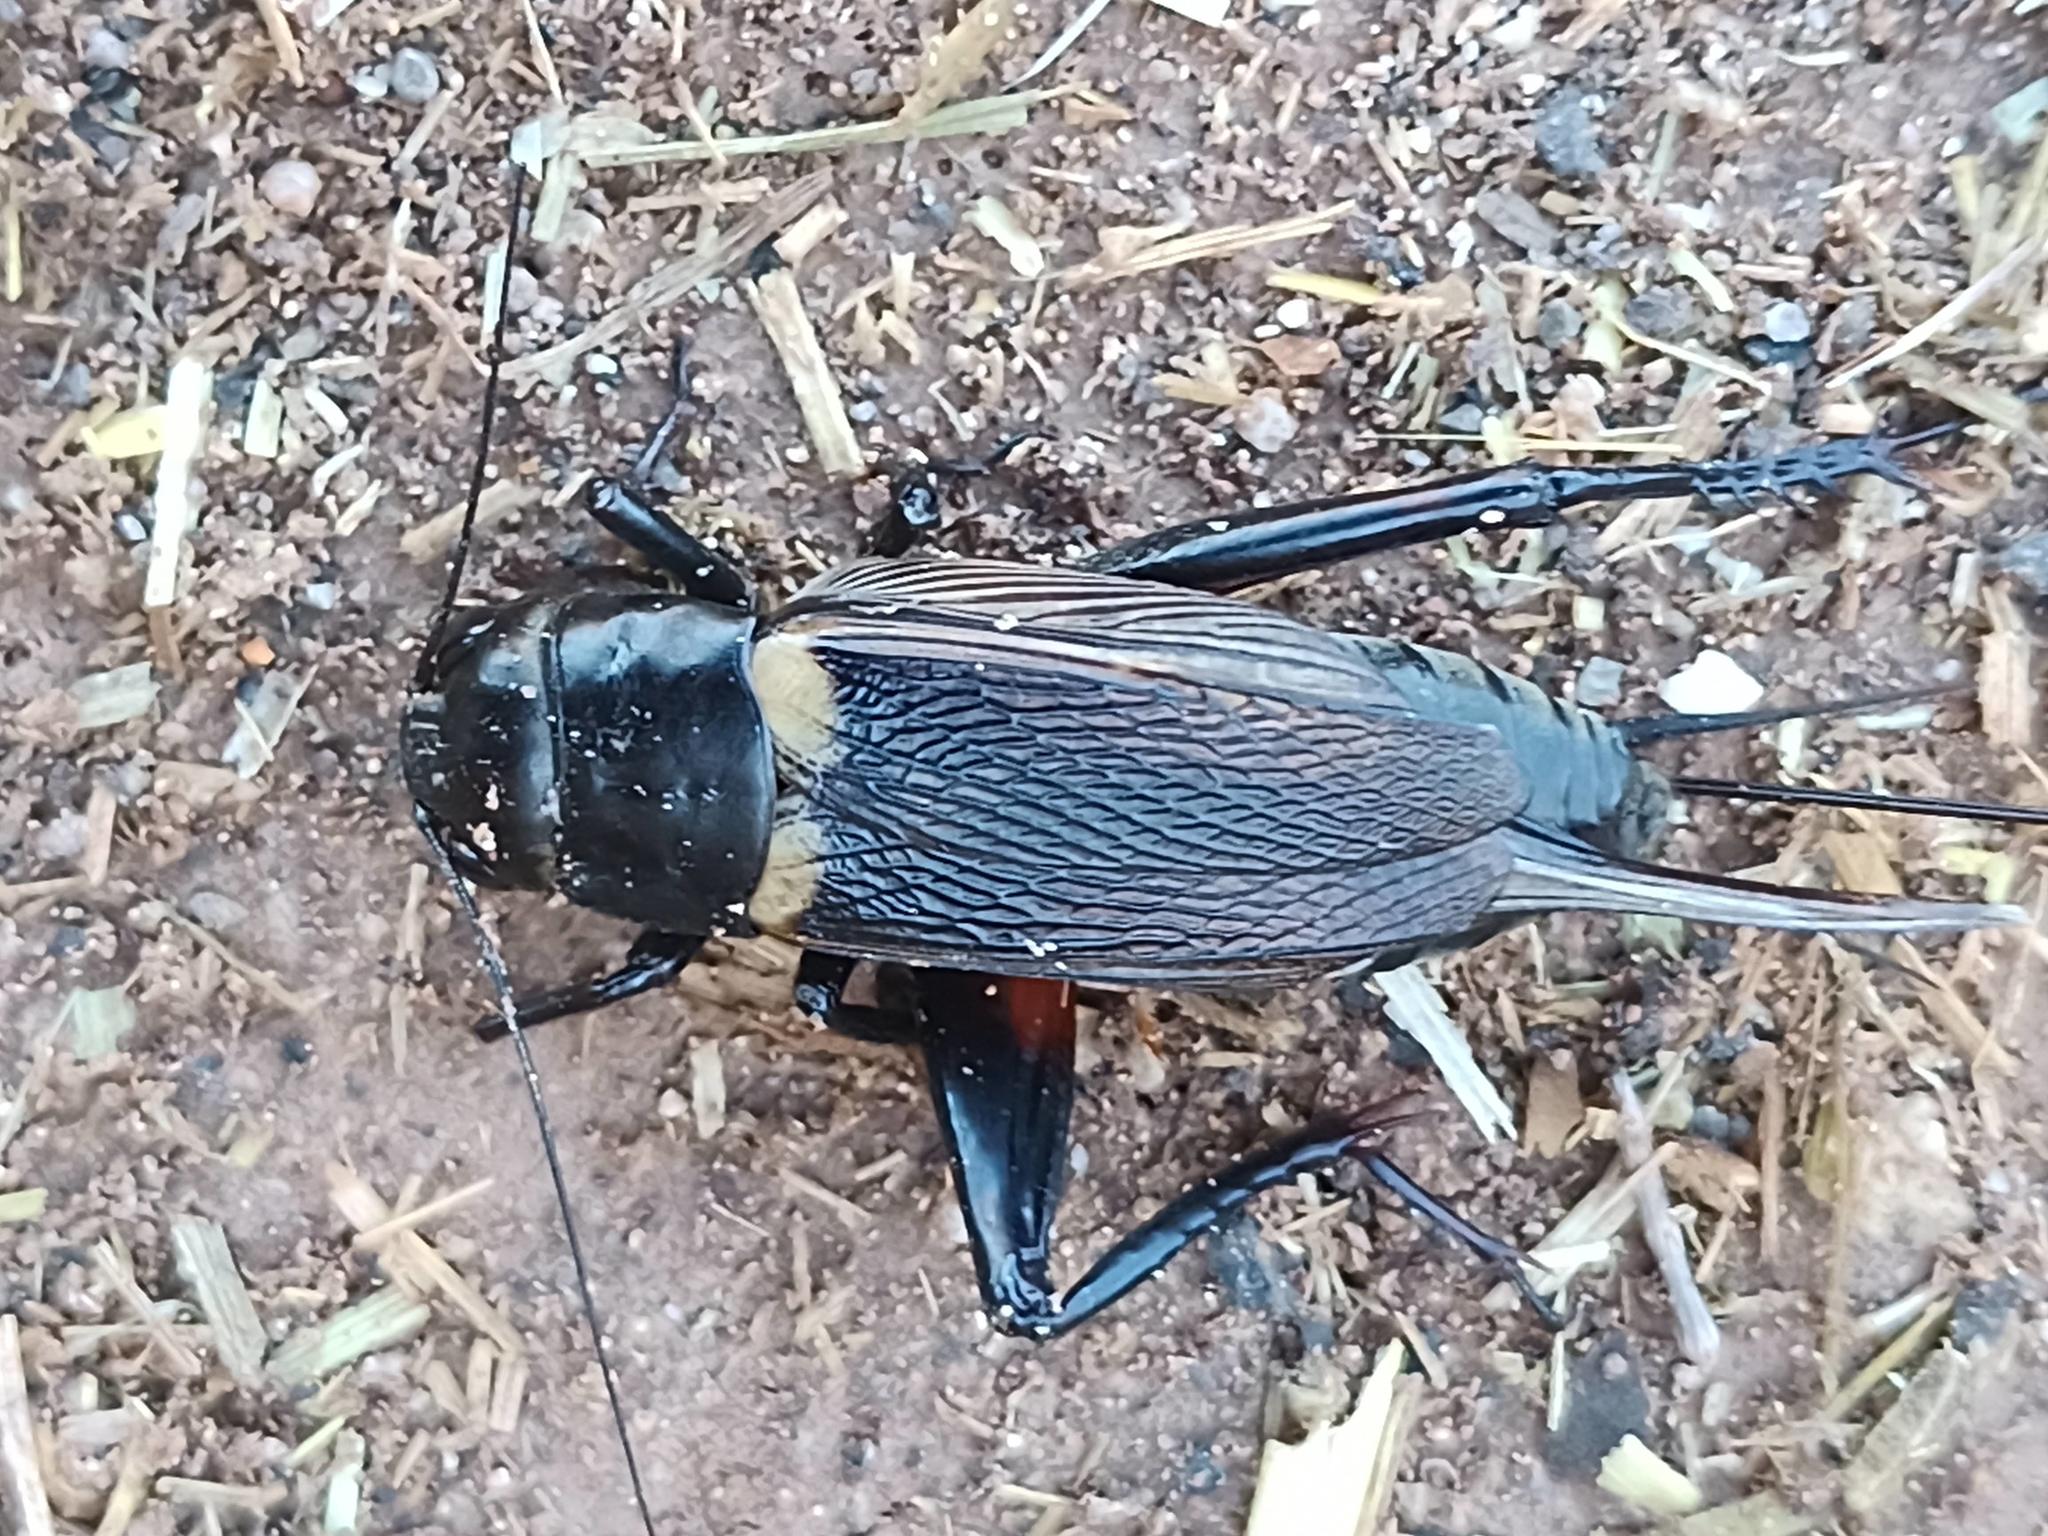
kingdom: Animalia
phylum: Arthropoda
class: Insecta
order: Orthoptera
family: Gryllidae
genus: Gryllus
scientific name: Gryllus bimaculatus
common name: Two-spotted cricket
